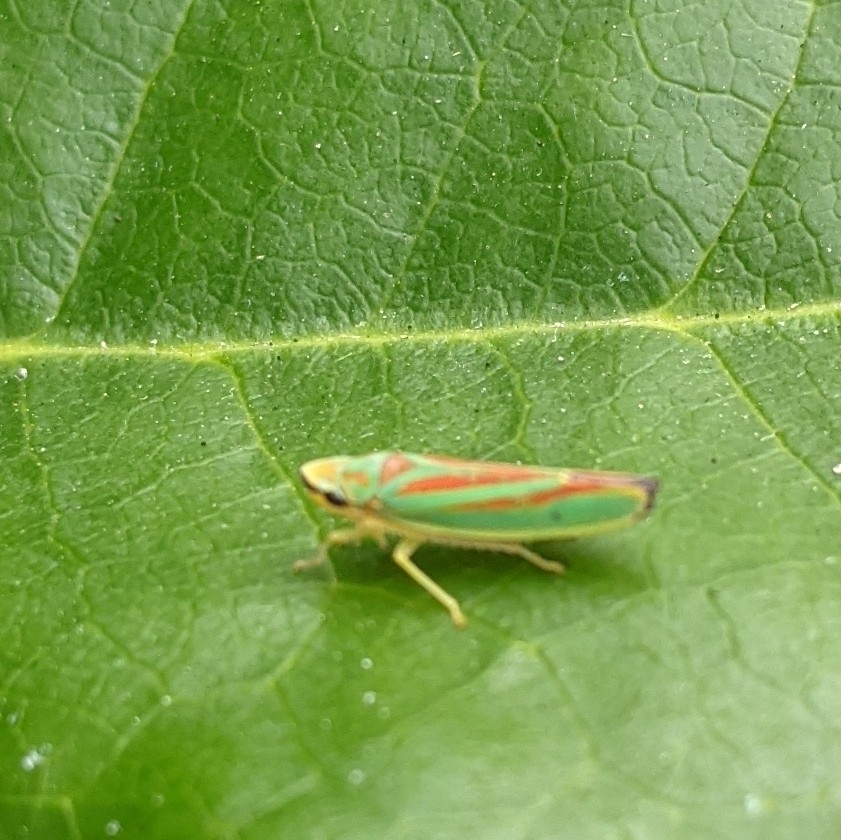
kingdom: Animalia
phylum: Arthropoda
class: Insecta
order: Hemiptera
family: Cicadellidae
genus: Graphocephala
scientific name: Graphocephala fennahi
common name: Rhododendron leafhopper
